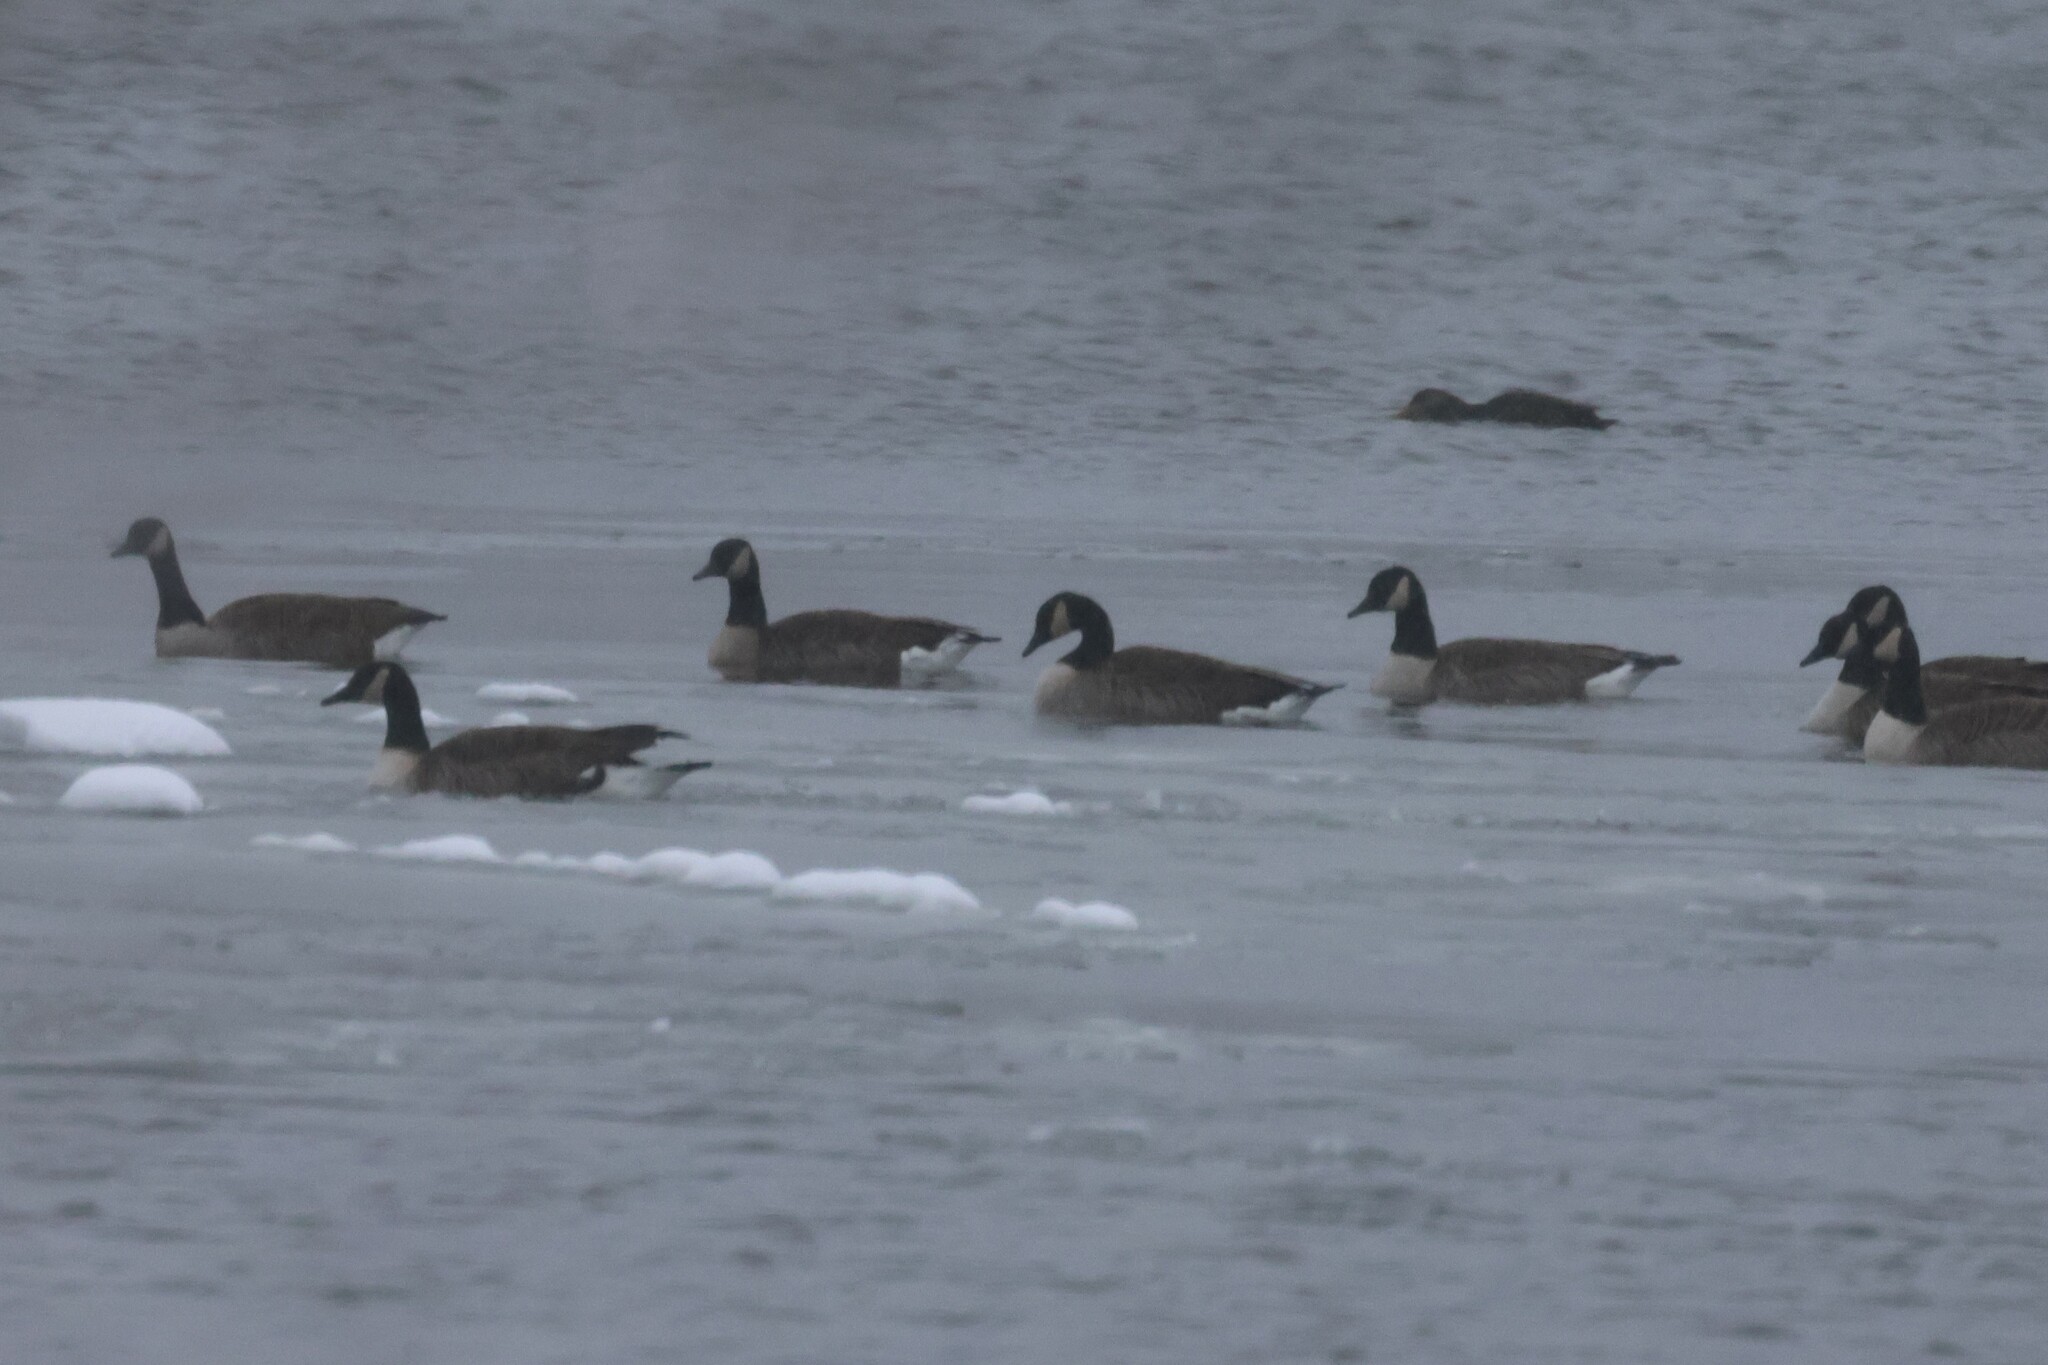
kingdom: Animalia
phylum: Chordata
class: Aves
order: Anseriformes
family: Anatidae
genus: Branta
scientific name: Branta canadensis
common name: Canada goose
